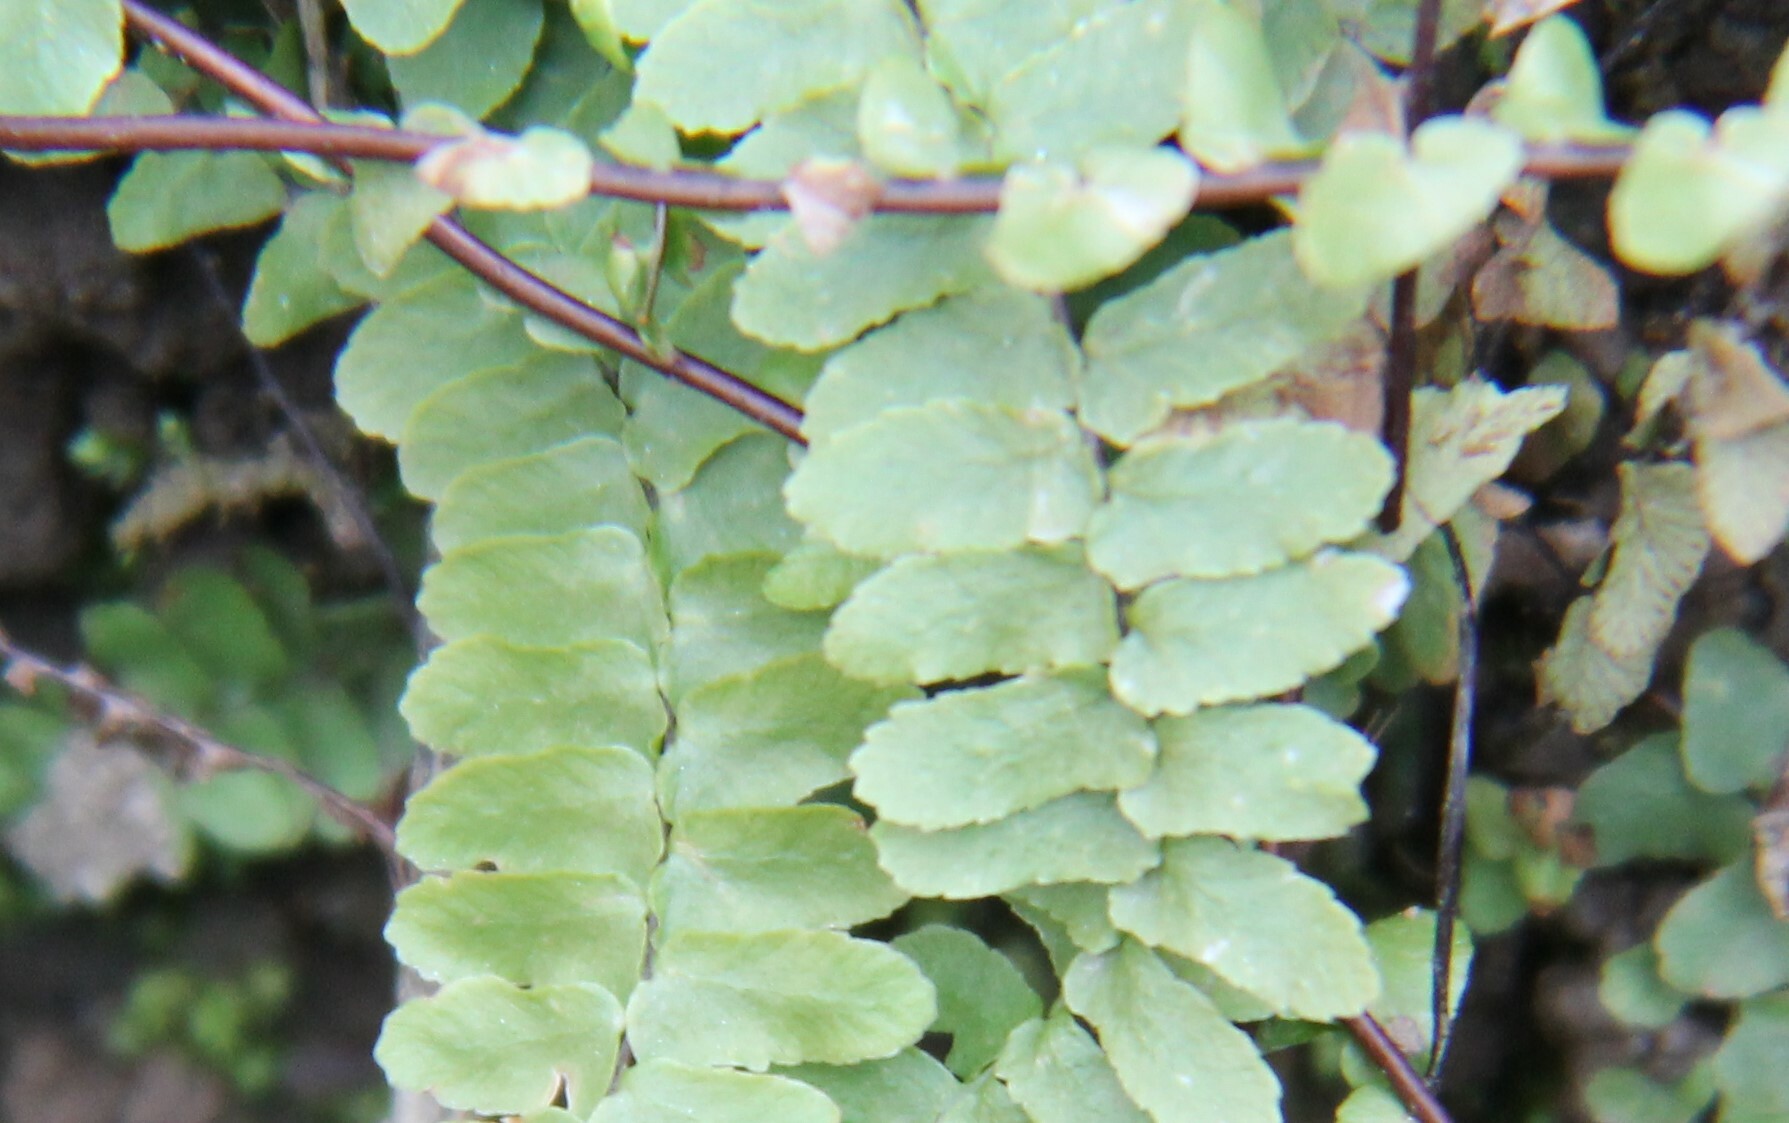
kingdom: Plantae
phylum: Tracheophyta
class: Polypodiopsida
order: Polypodiales
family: Aspleniaceae
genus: Asplenium
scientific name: Asplenium platyneuron
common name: Ebony spleenwort
